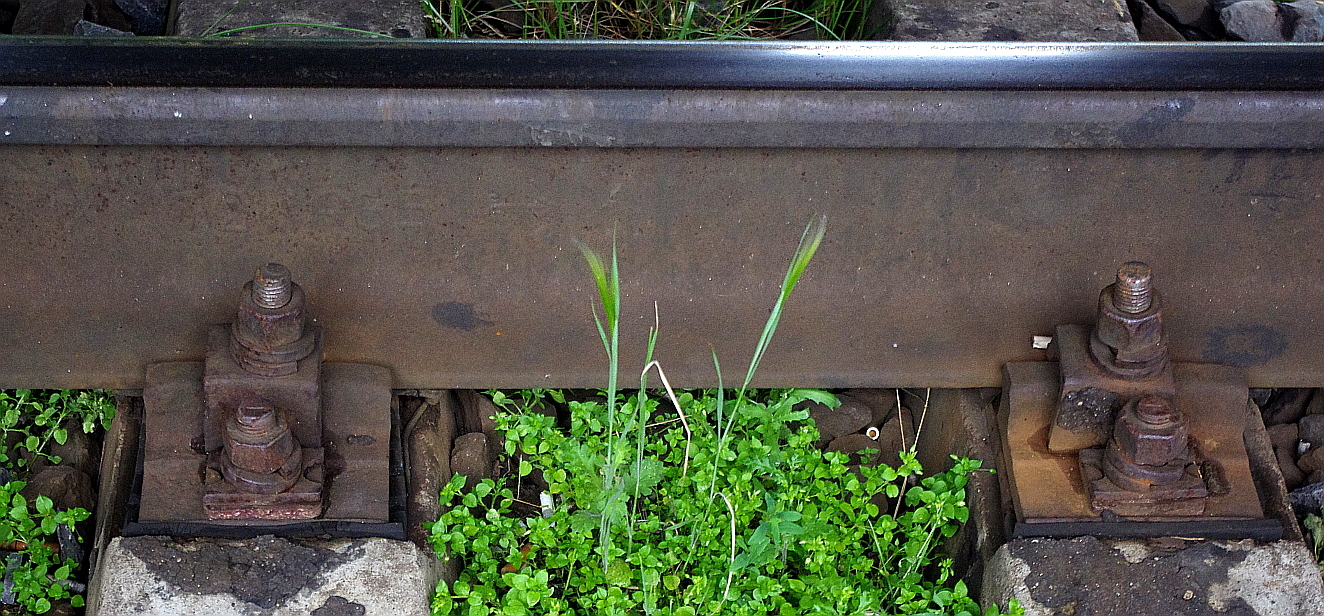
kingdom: Plantae
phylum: Tracheophyta
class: Liliopsida
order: Poales
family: Poaceae
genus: Hordeum
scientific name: Hordeum jubatum
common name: Foxtail barley
